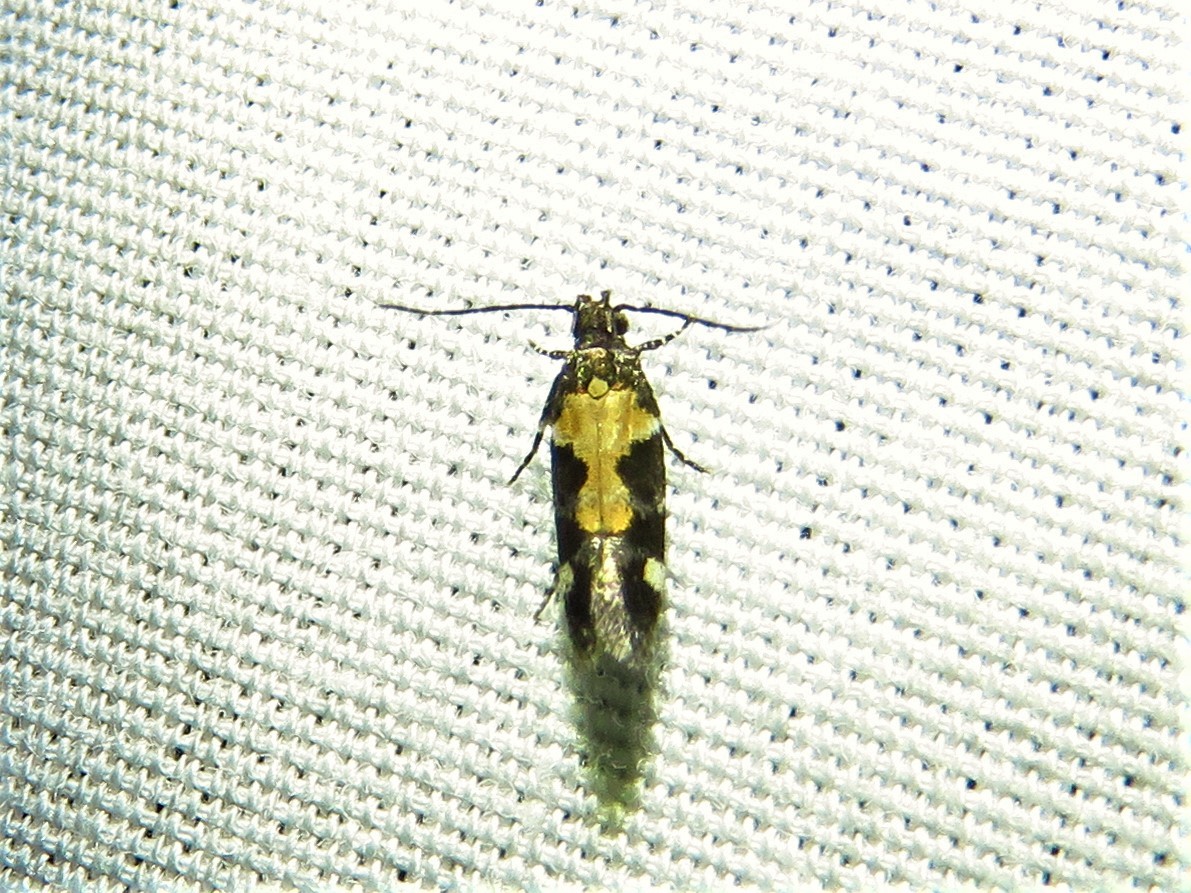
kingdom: Animalia
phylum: Arthropoda
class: Insecta
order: Lepidoptera
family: Gelechiidae
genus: Stegasta
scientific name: Stegasta bosqueella
